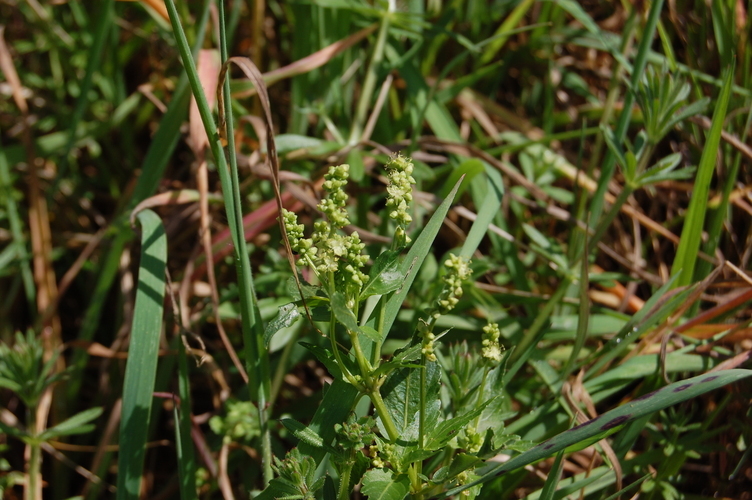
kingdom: Plantae
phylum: Tracheophyta
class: Magnoliopsida
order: Malpighiales
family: Euphorbiaceae
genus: Mercurialis
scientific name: Mercurialis annua
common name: Annual mercury
